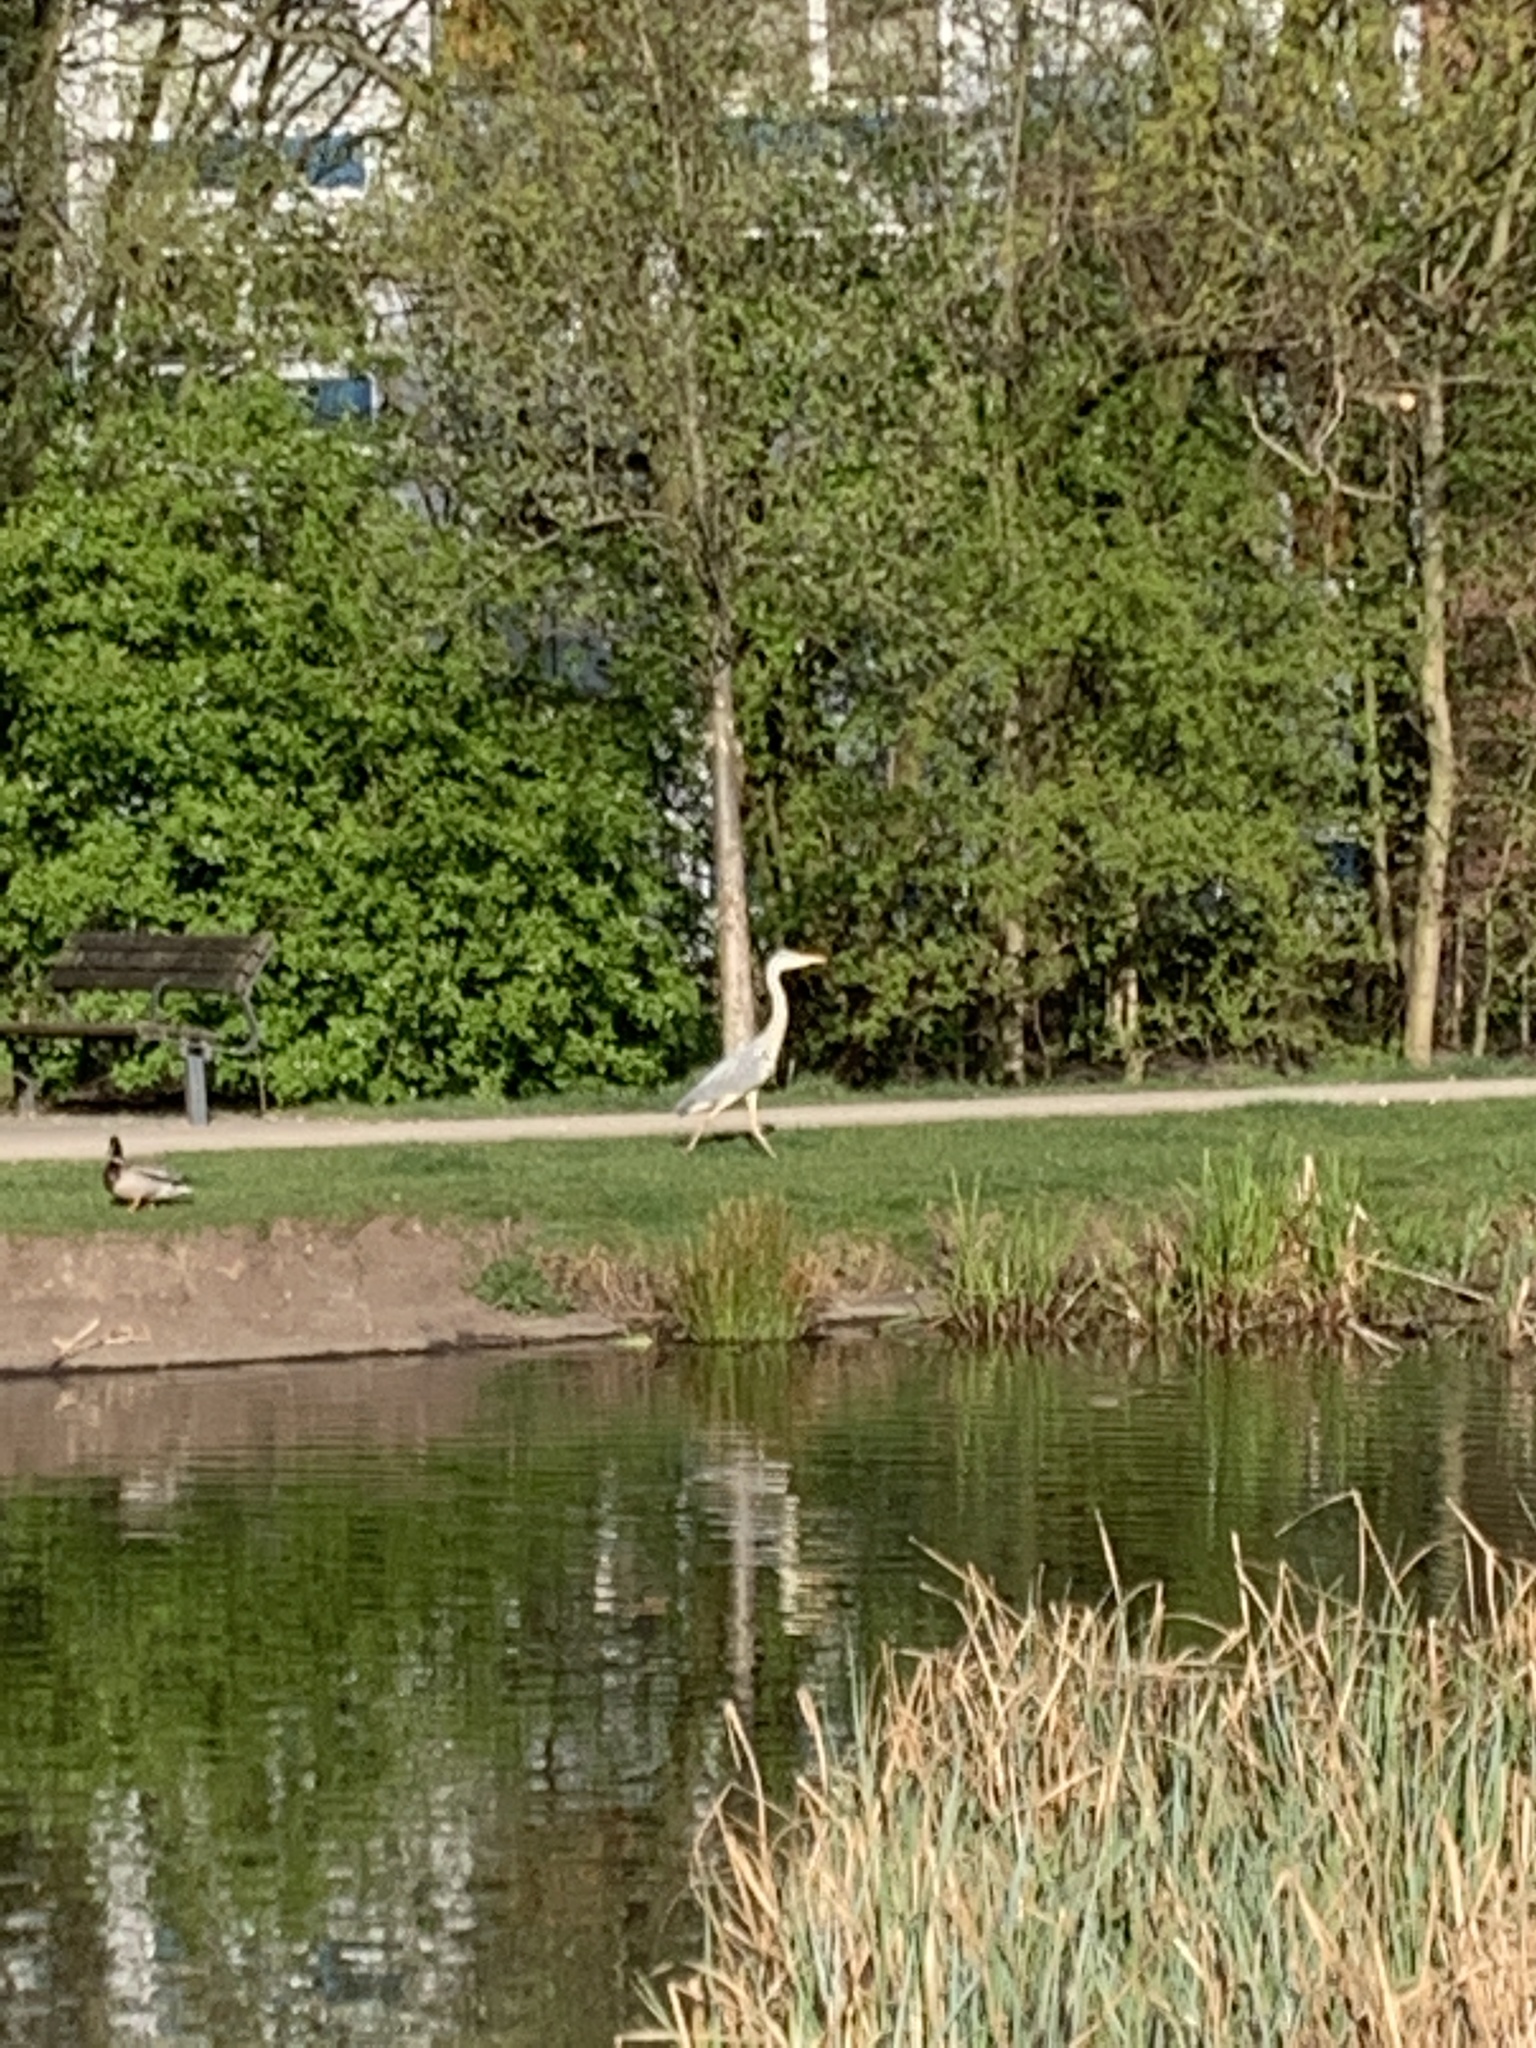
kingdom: Animalia
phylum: Chordata
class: Aves
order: Pelecaniformes
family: Ardeidae
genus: Ardea
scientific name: Ardea cinerea
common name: Grey heron
